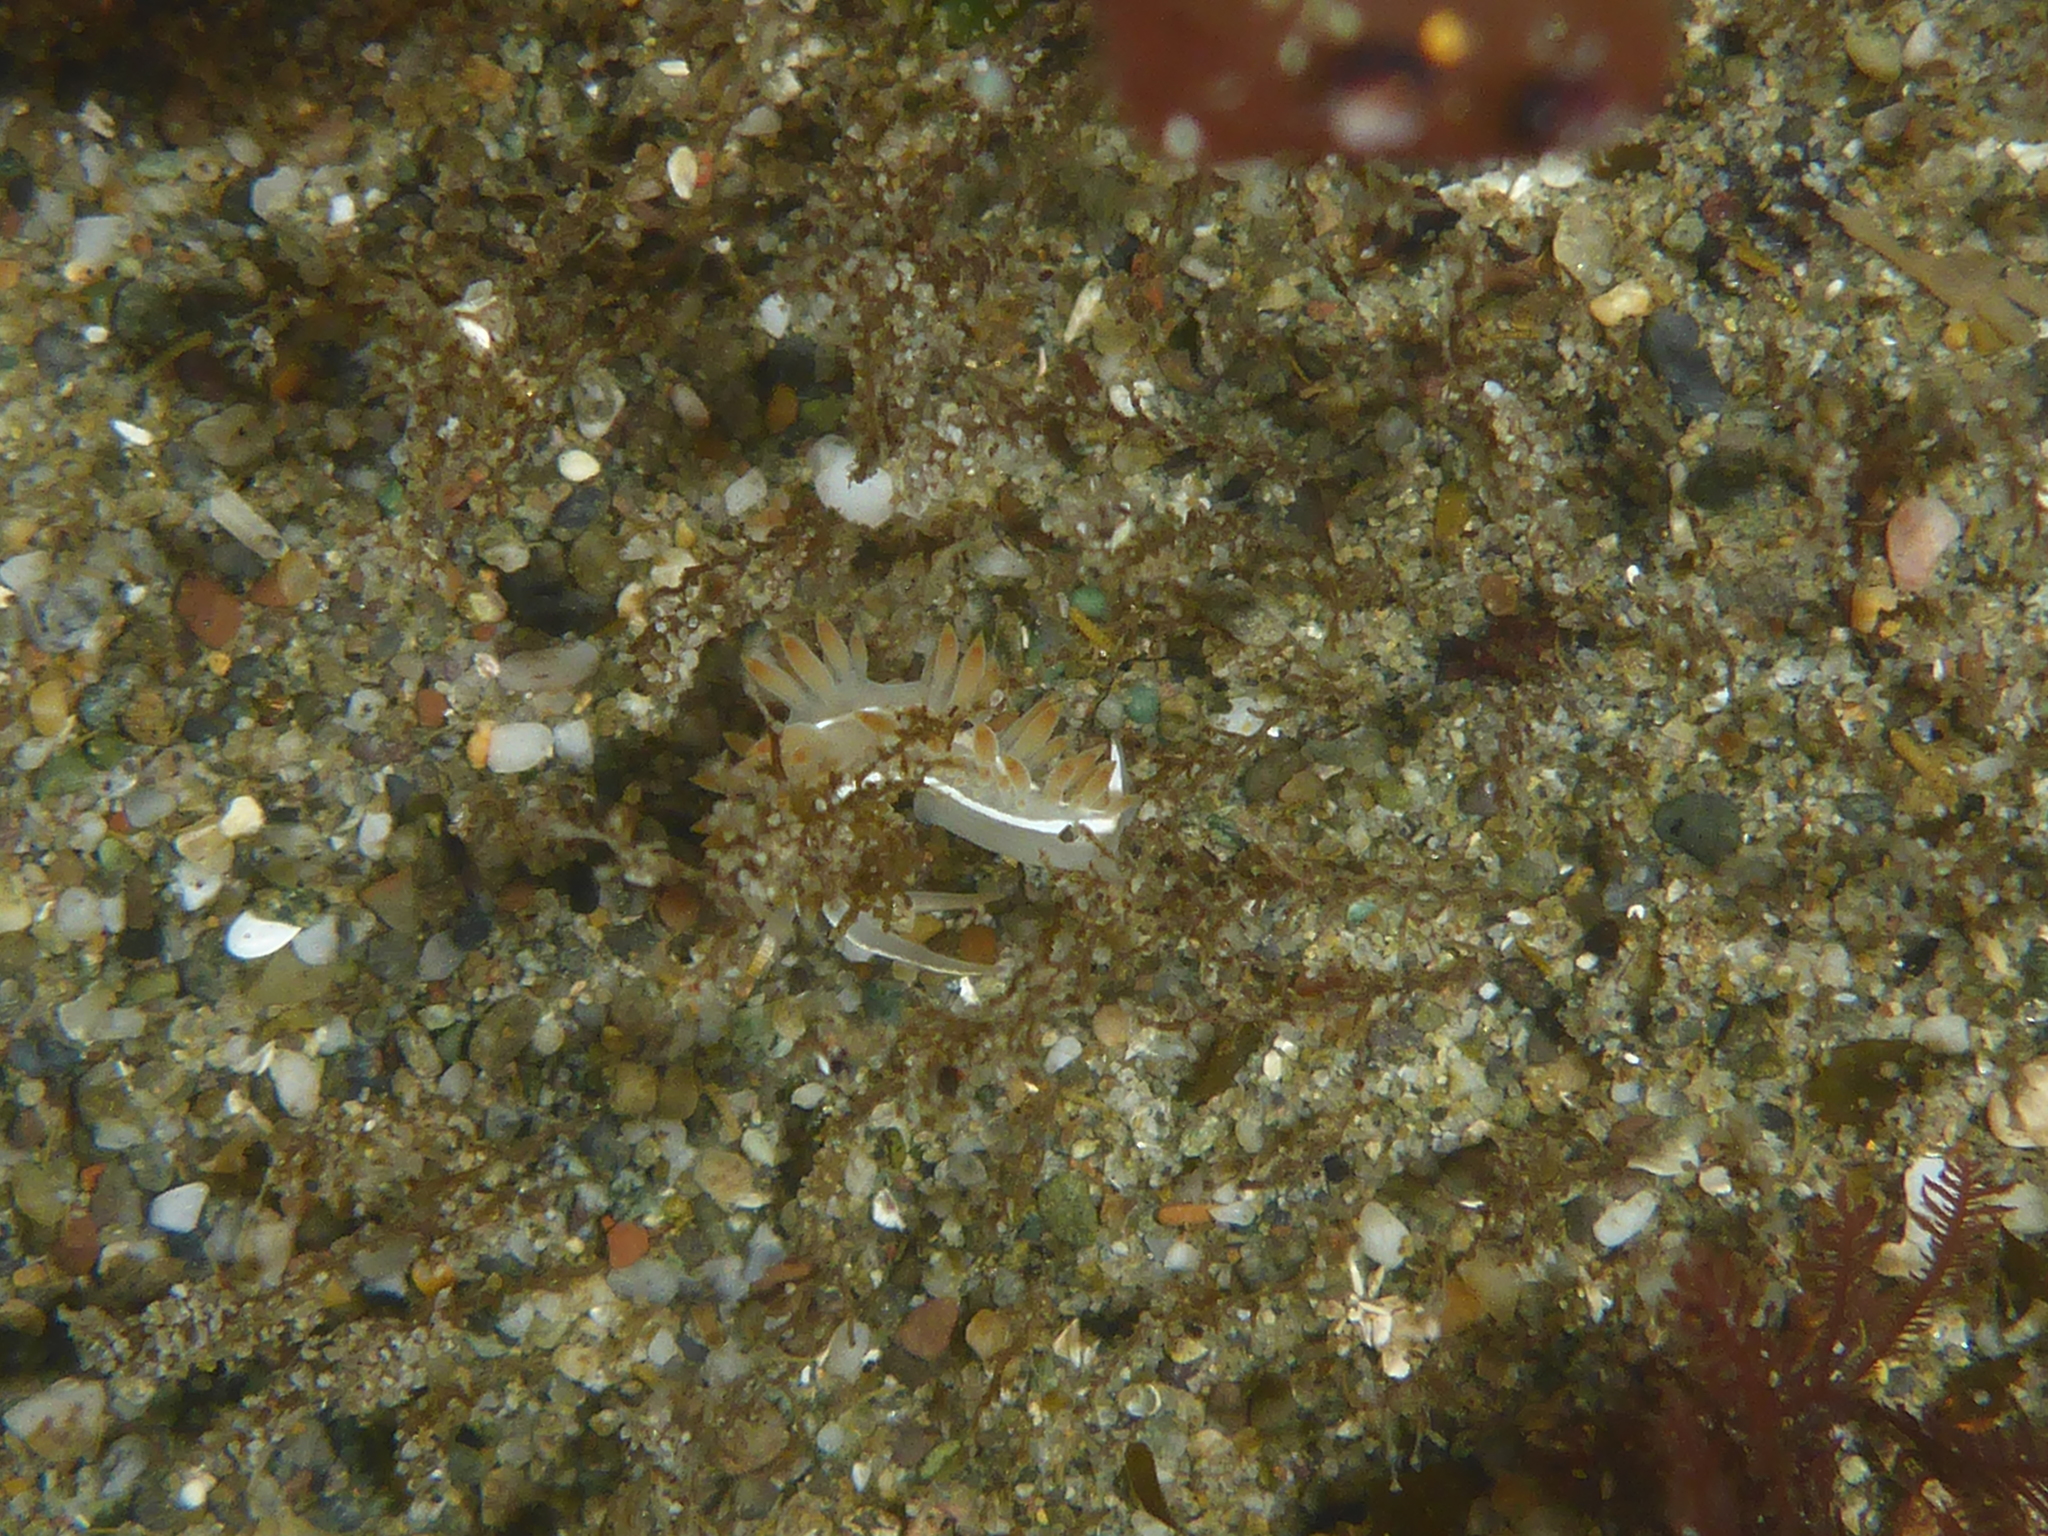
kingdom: Animalia
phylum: Mollusca
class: Gastropoda
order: Nudibranchia
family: Coryphellidae
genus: Coryphella
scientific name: Coryphella trilineata
